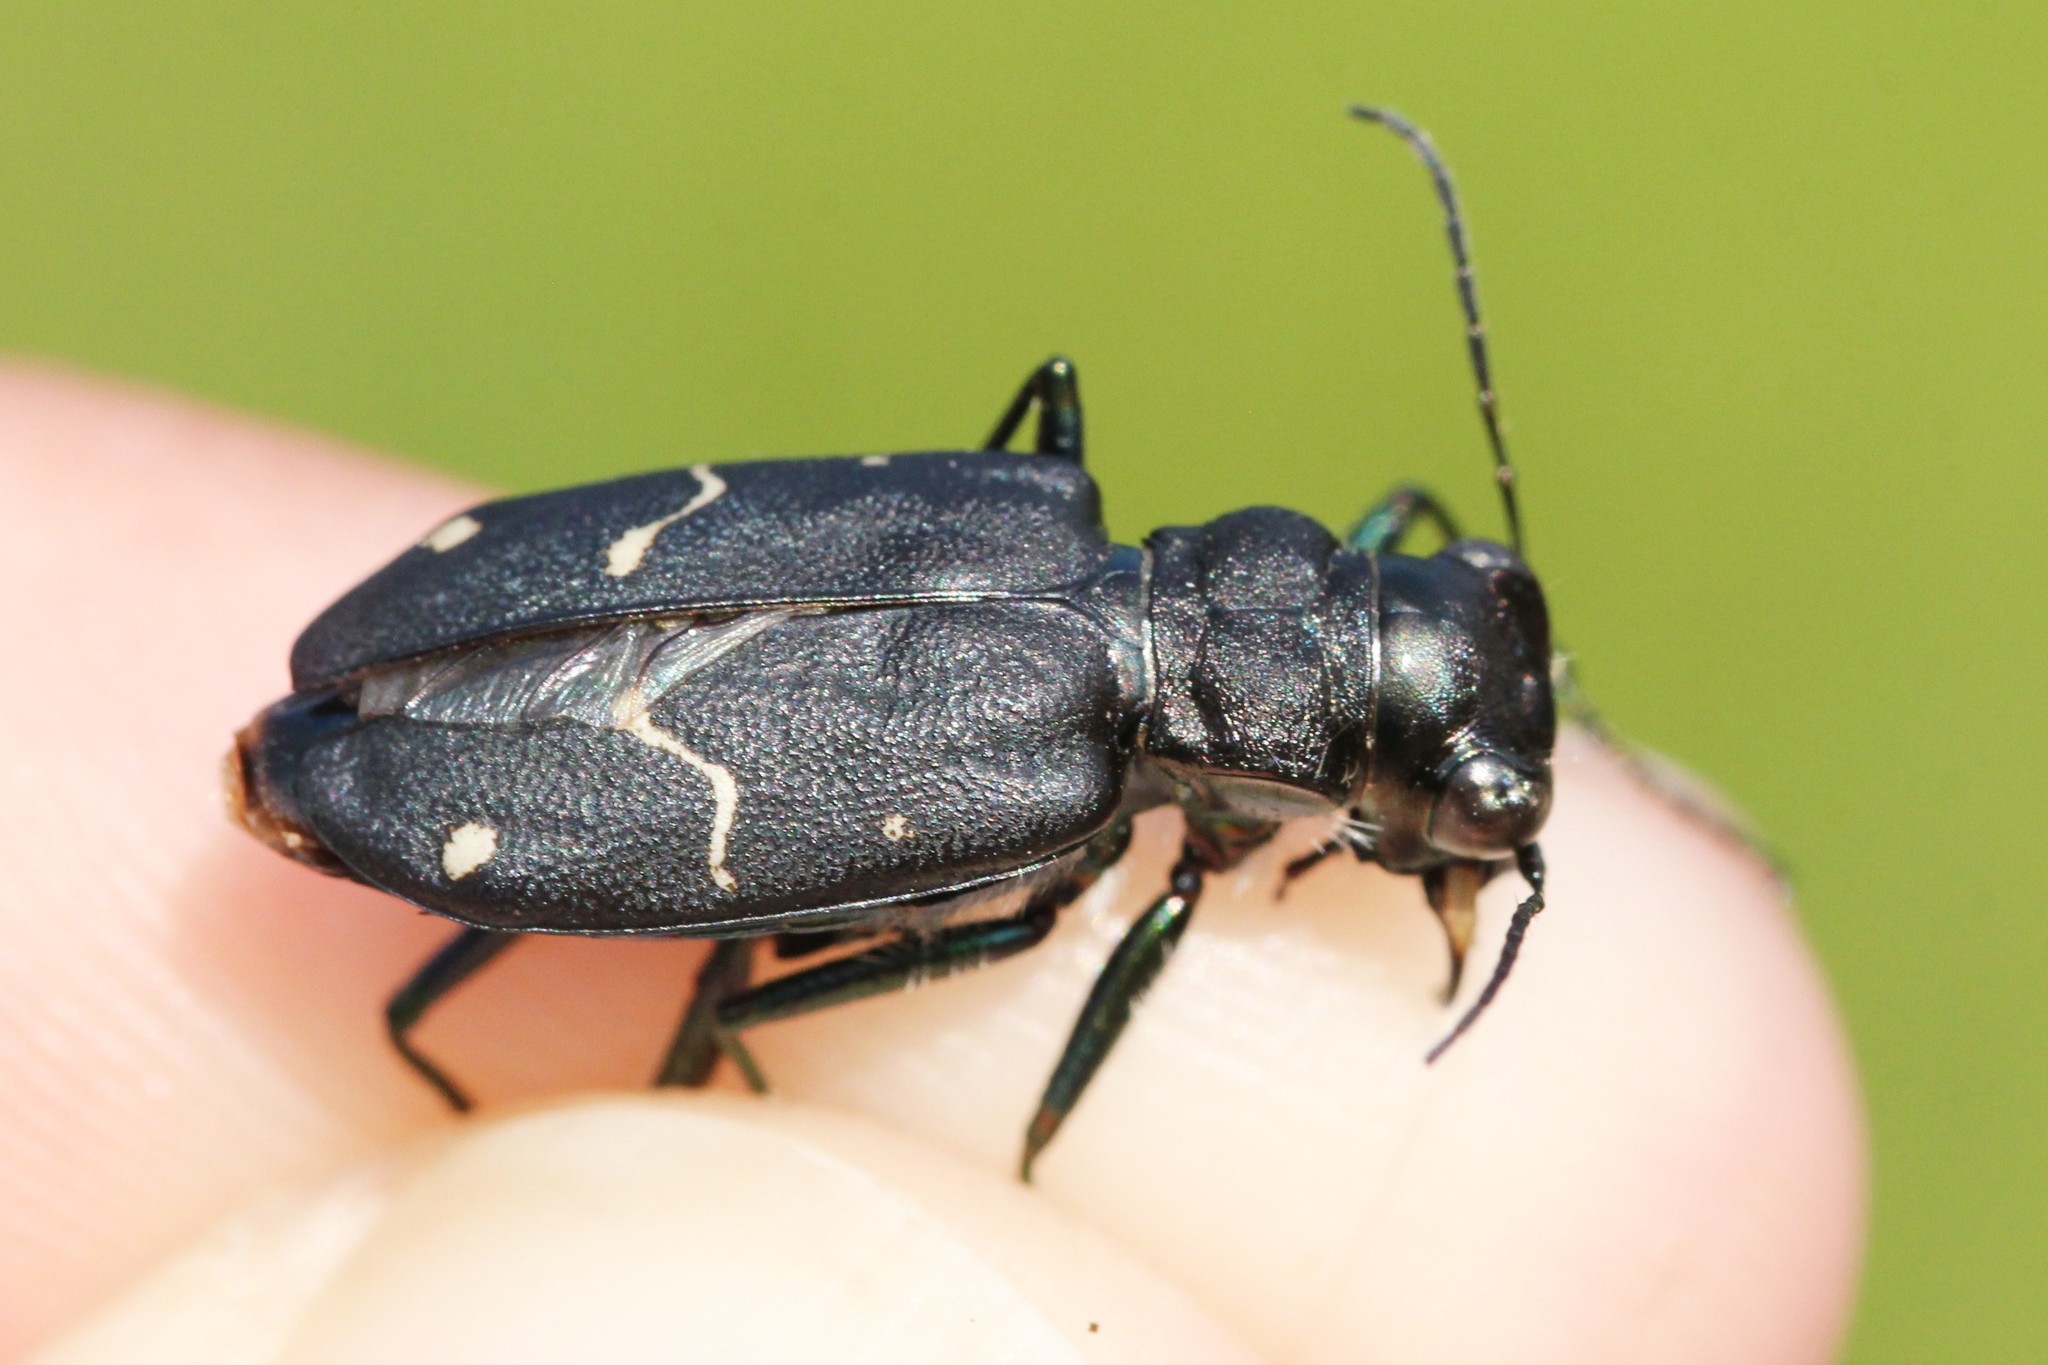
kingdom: Animalia
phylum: Arthropoda
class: Insecta
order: Coleoptera
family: Carabidae
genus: Cicindela
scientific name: Cicindela longilabris
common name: Boreal long-lipped tiger beetle
